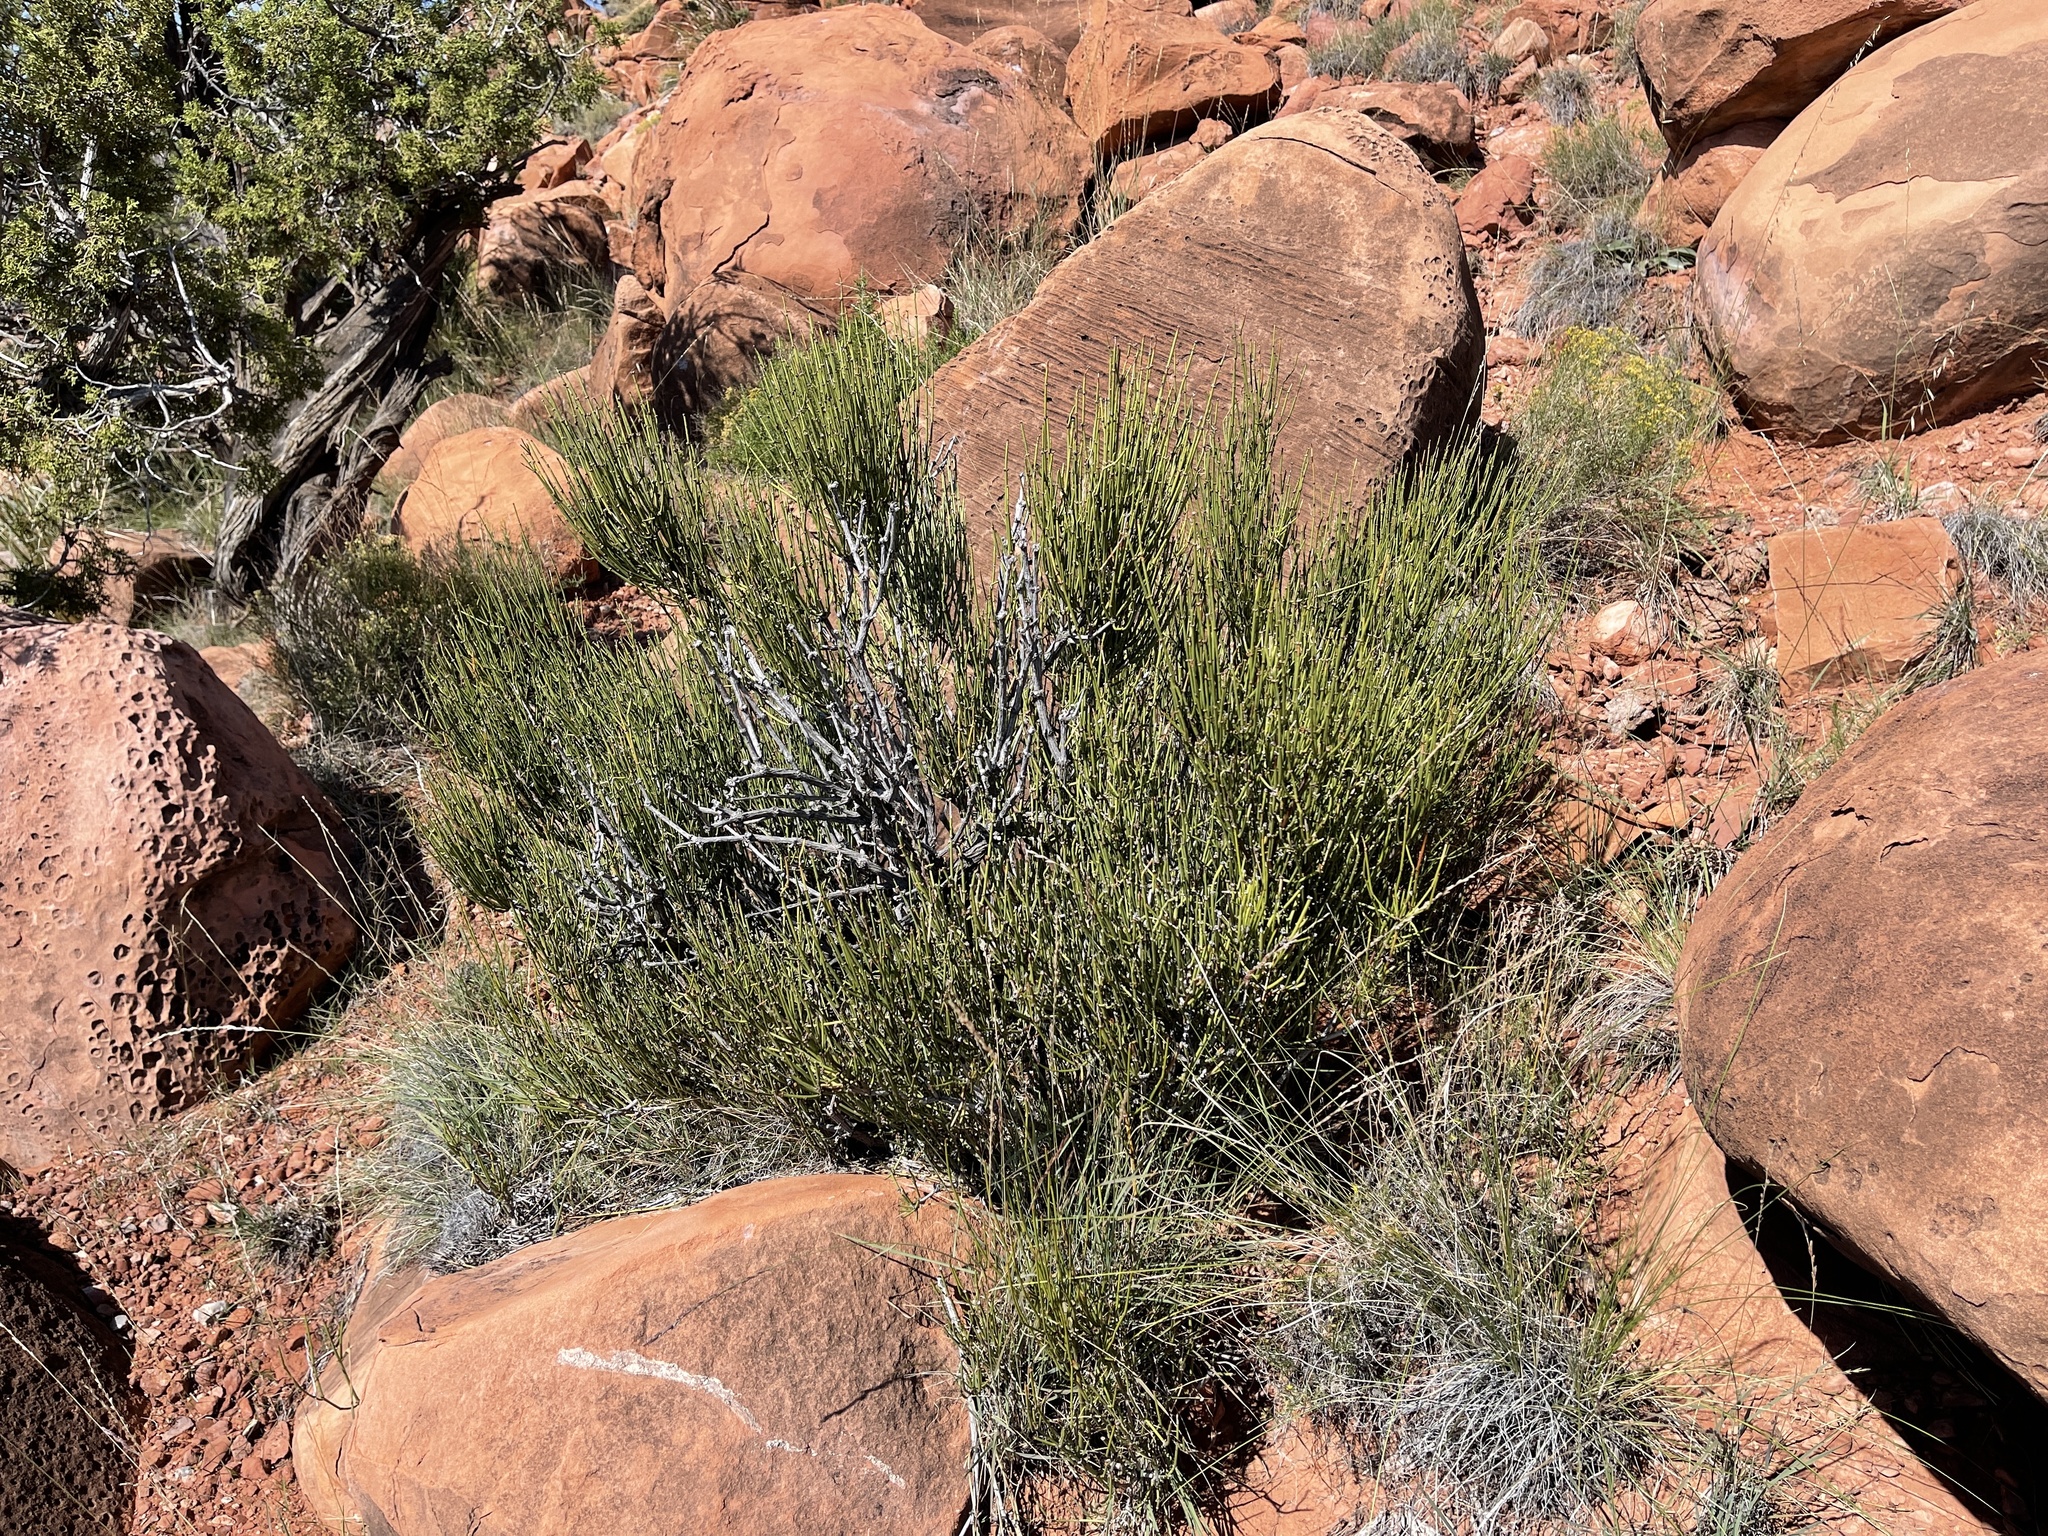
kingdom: Plantae
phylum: Tracheophyta
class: Gnetopsida
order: Ephedrales
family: Ephedraceae
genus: Ephedra
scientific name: Ephedra viridis
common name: Green ephedra
